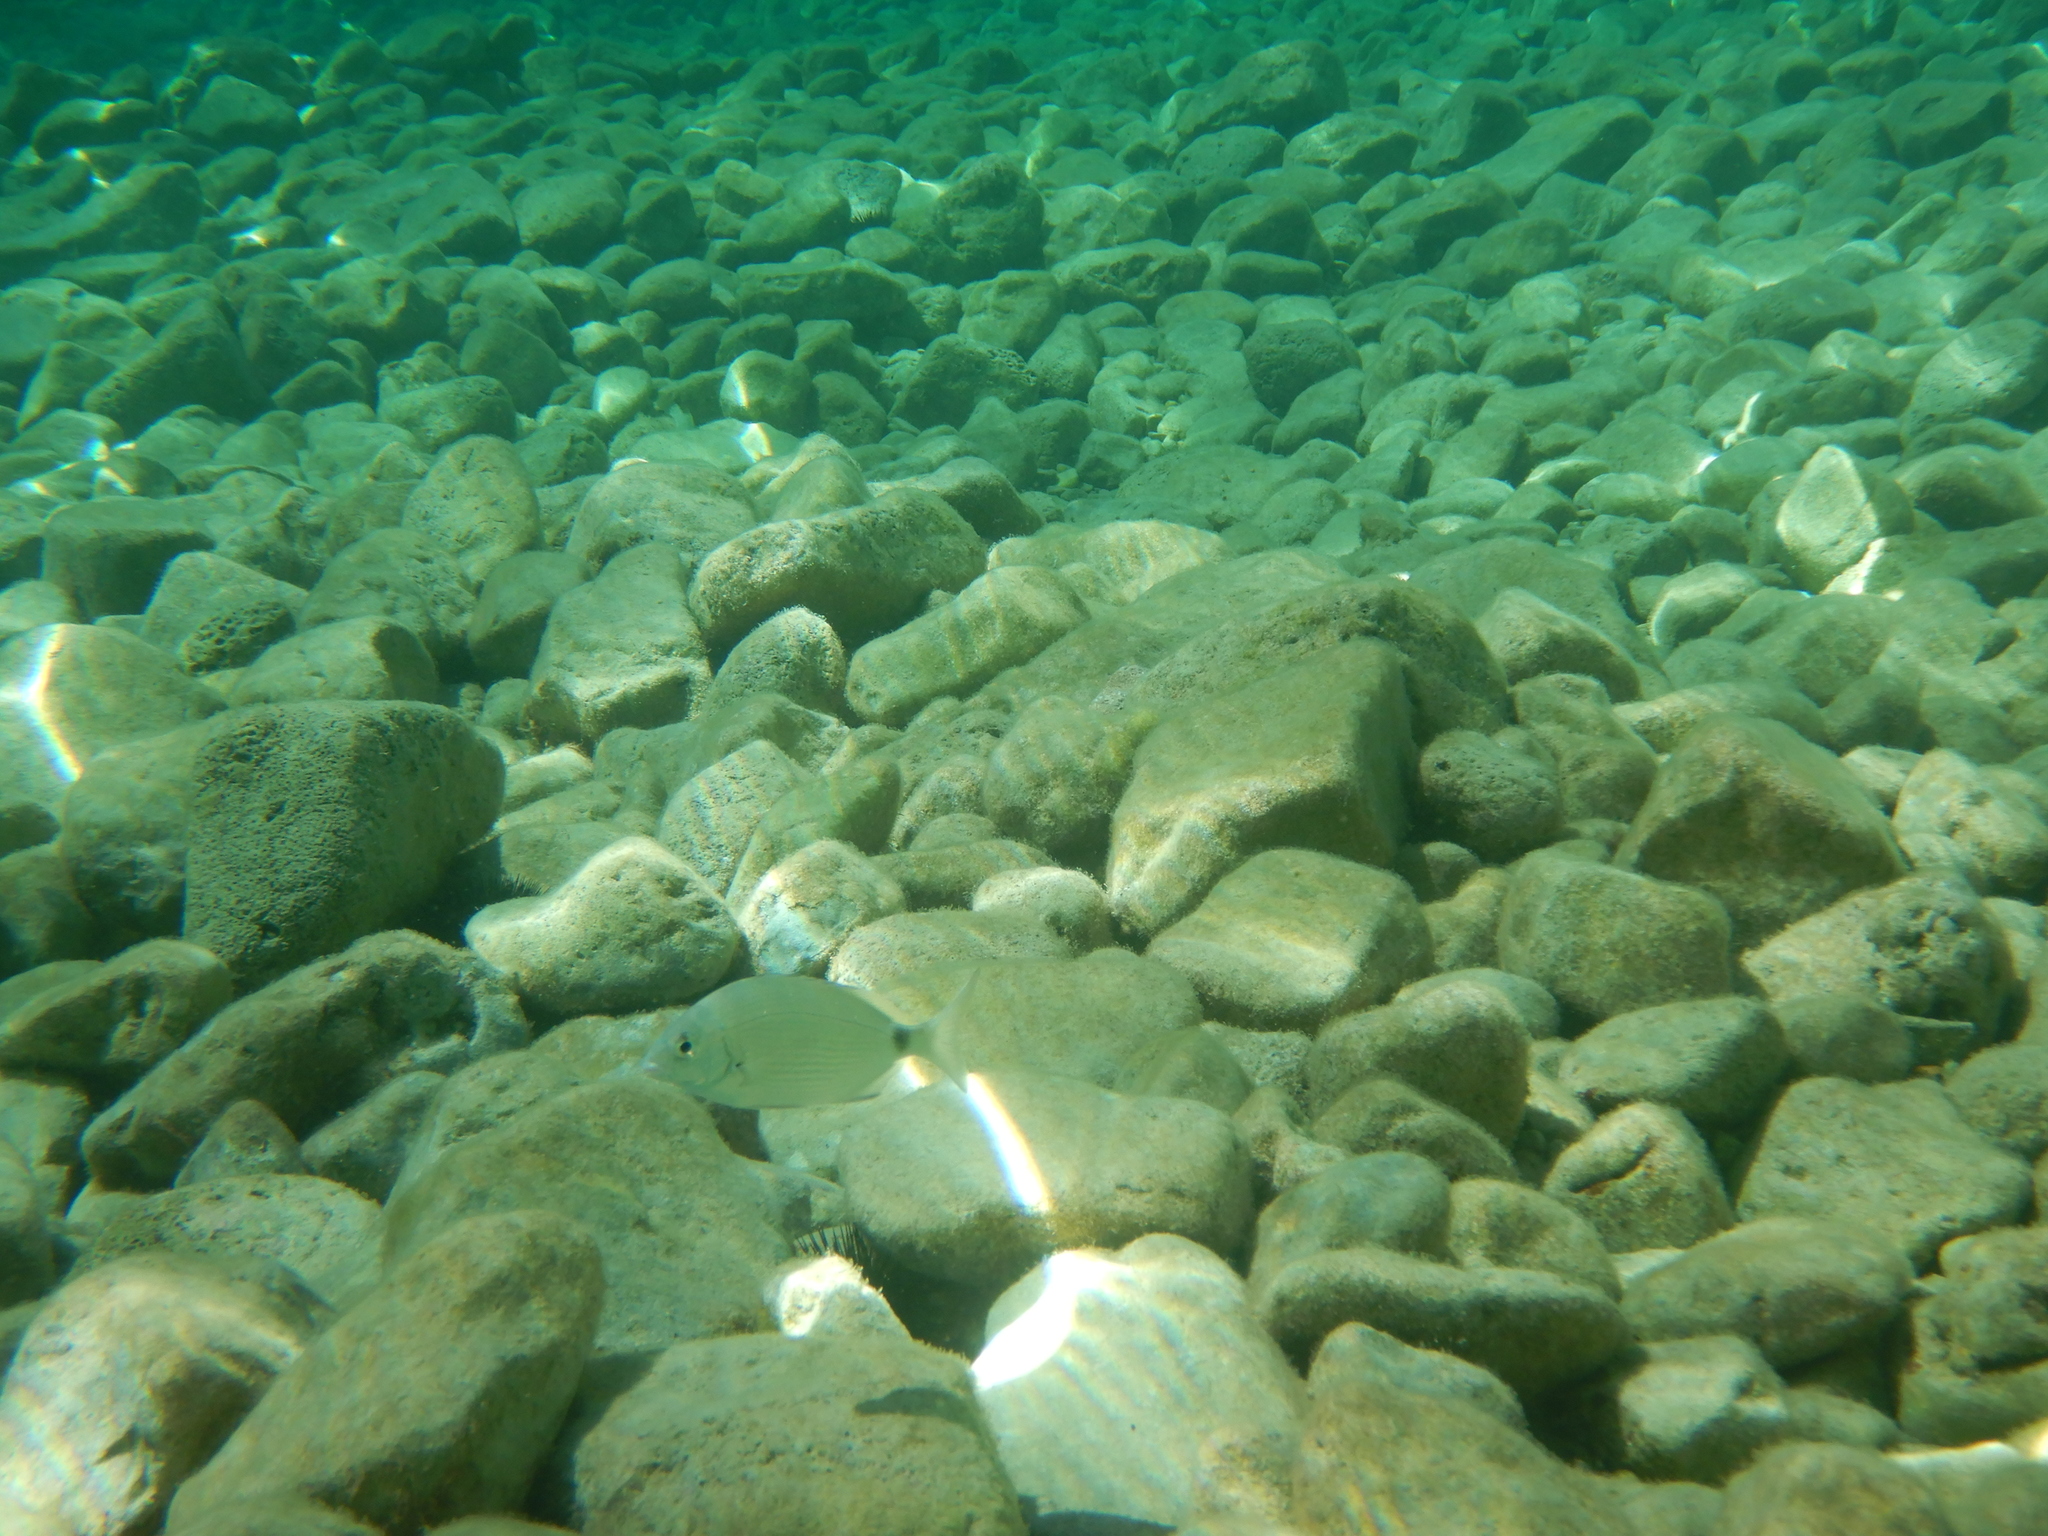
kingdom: Animalia
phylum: Chordata
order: Perciformes
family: Sparidae
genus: Diplodus
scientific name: Diplodus sargus
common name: White seabream
